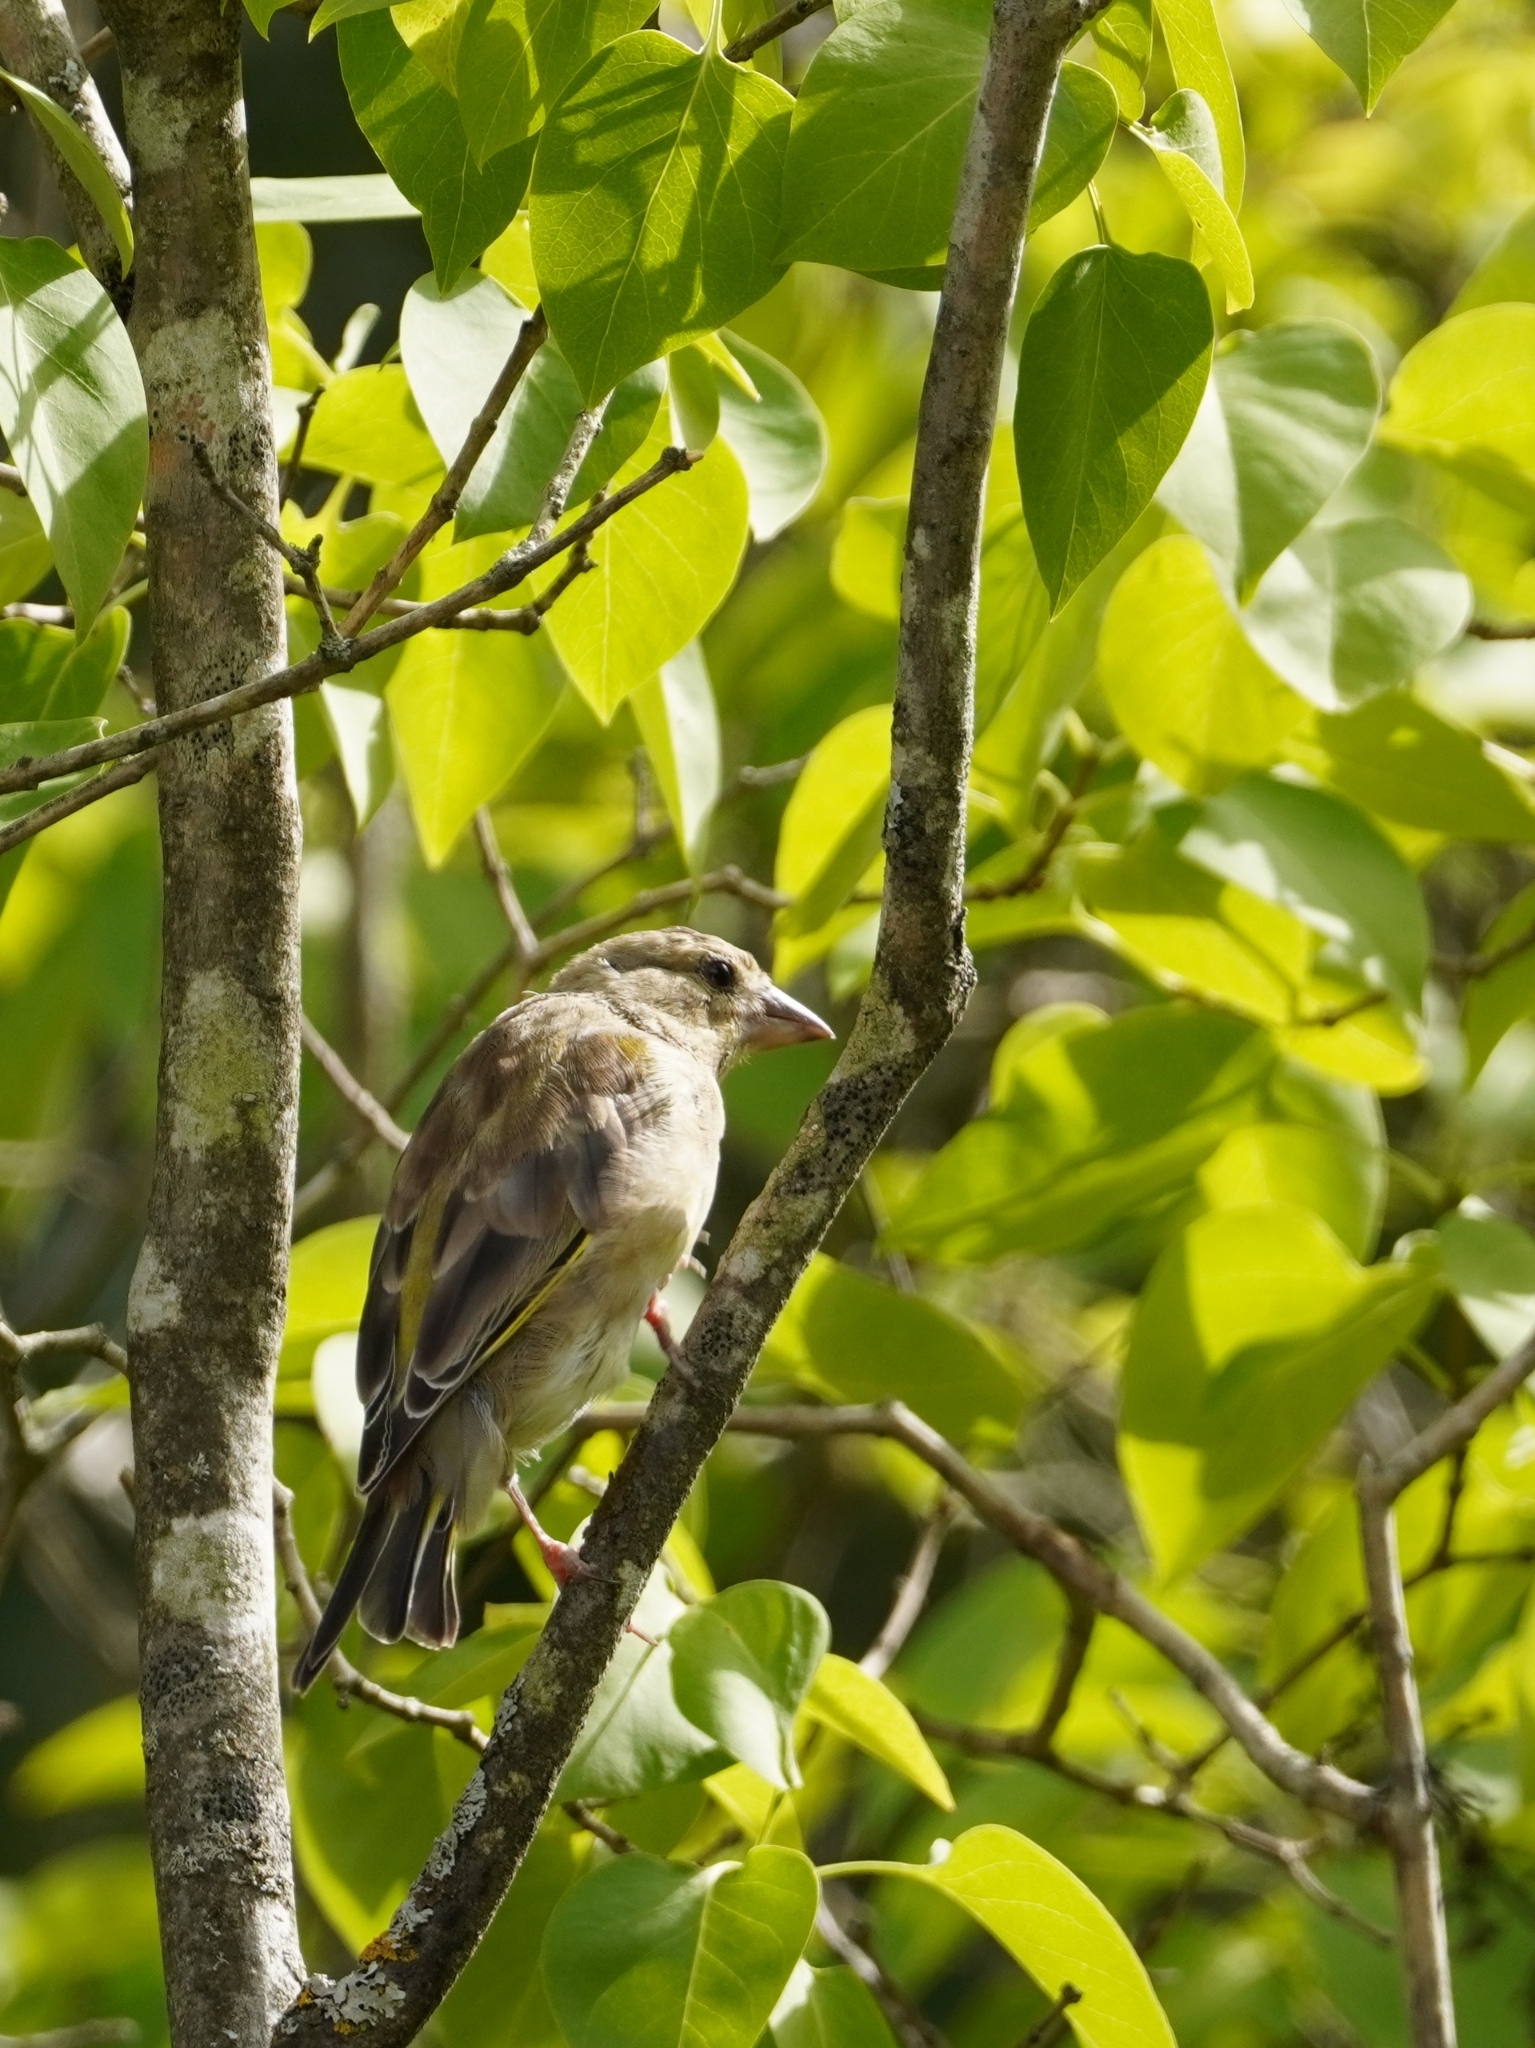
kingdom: Plantae
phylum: Tracheophyta
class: Liliopsida
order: Poales
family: Poaceae
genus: Chloris
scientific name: Chloris chloris
